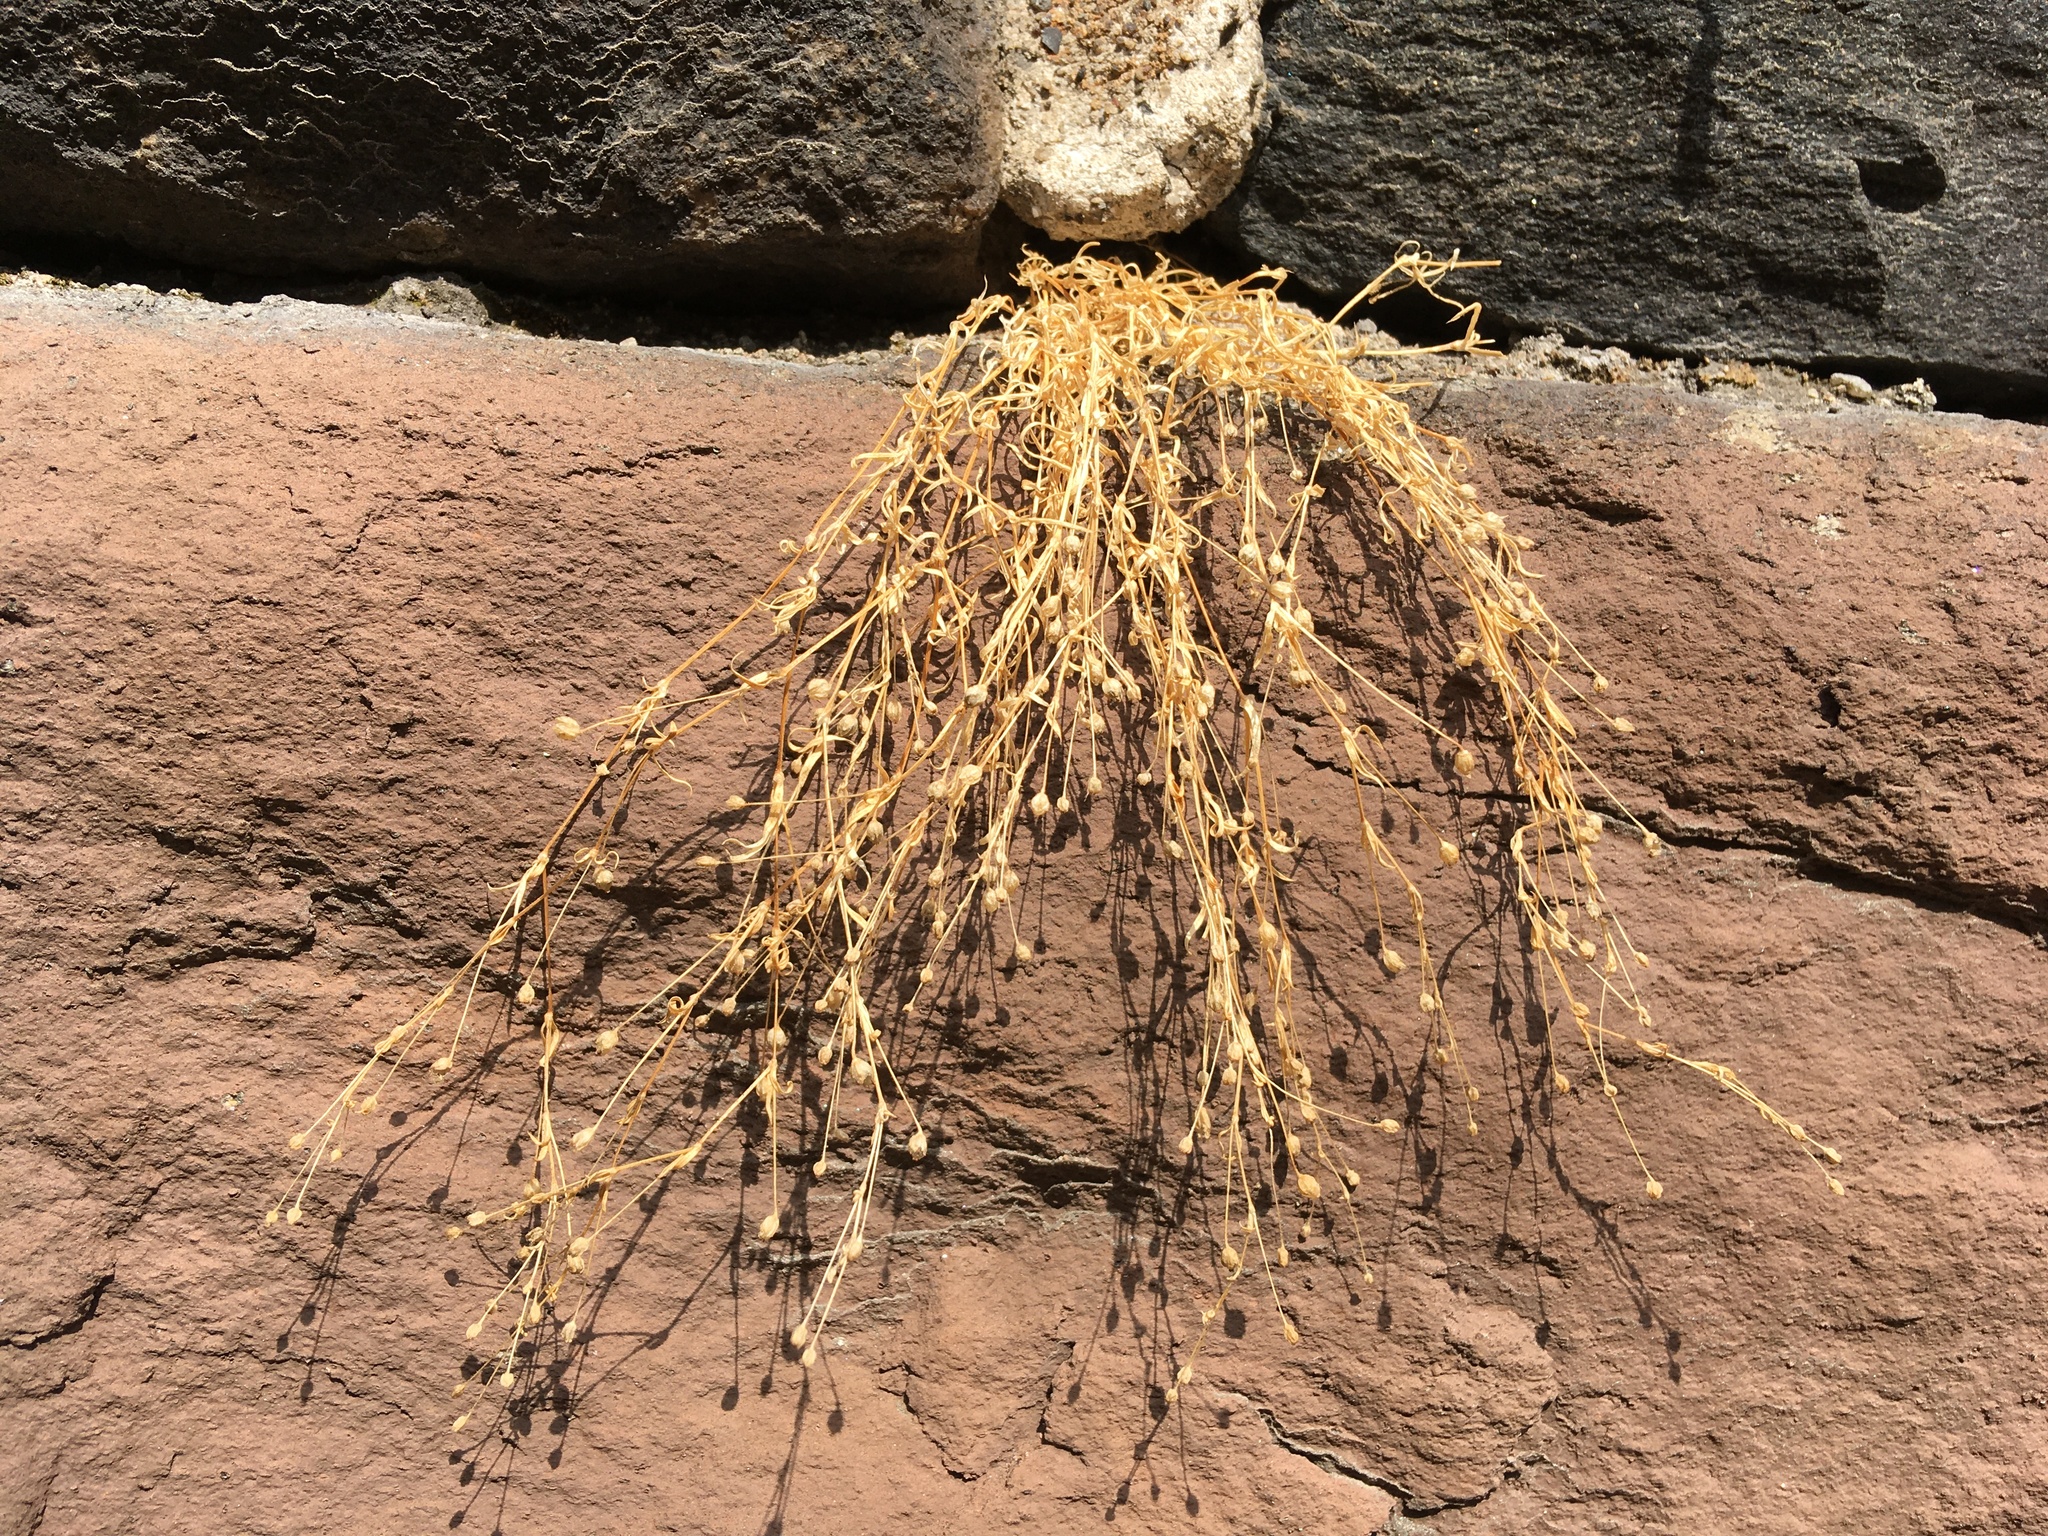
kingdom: Plantae
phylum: Tracheophyta
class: Magnoliopsida
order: Caryophyllales
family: Caryophyllaceae
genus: Sagina
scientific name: Sagina japonica
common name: Japanese pearlwort
